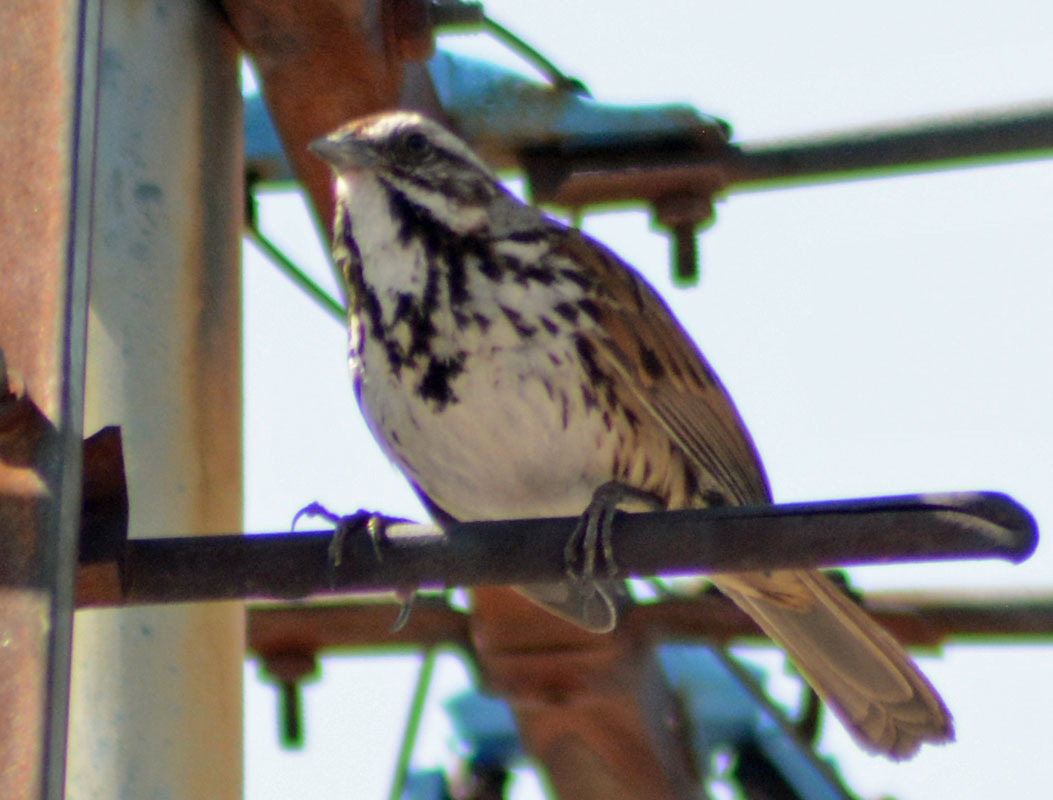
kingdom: Animalia
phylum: Chordata
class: Aves
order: Passeriformes
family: Passerellidae
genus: Melospiza
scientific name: Melospiza melodia
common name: Song sparrow
